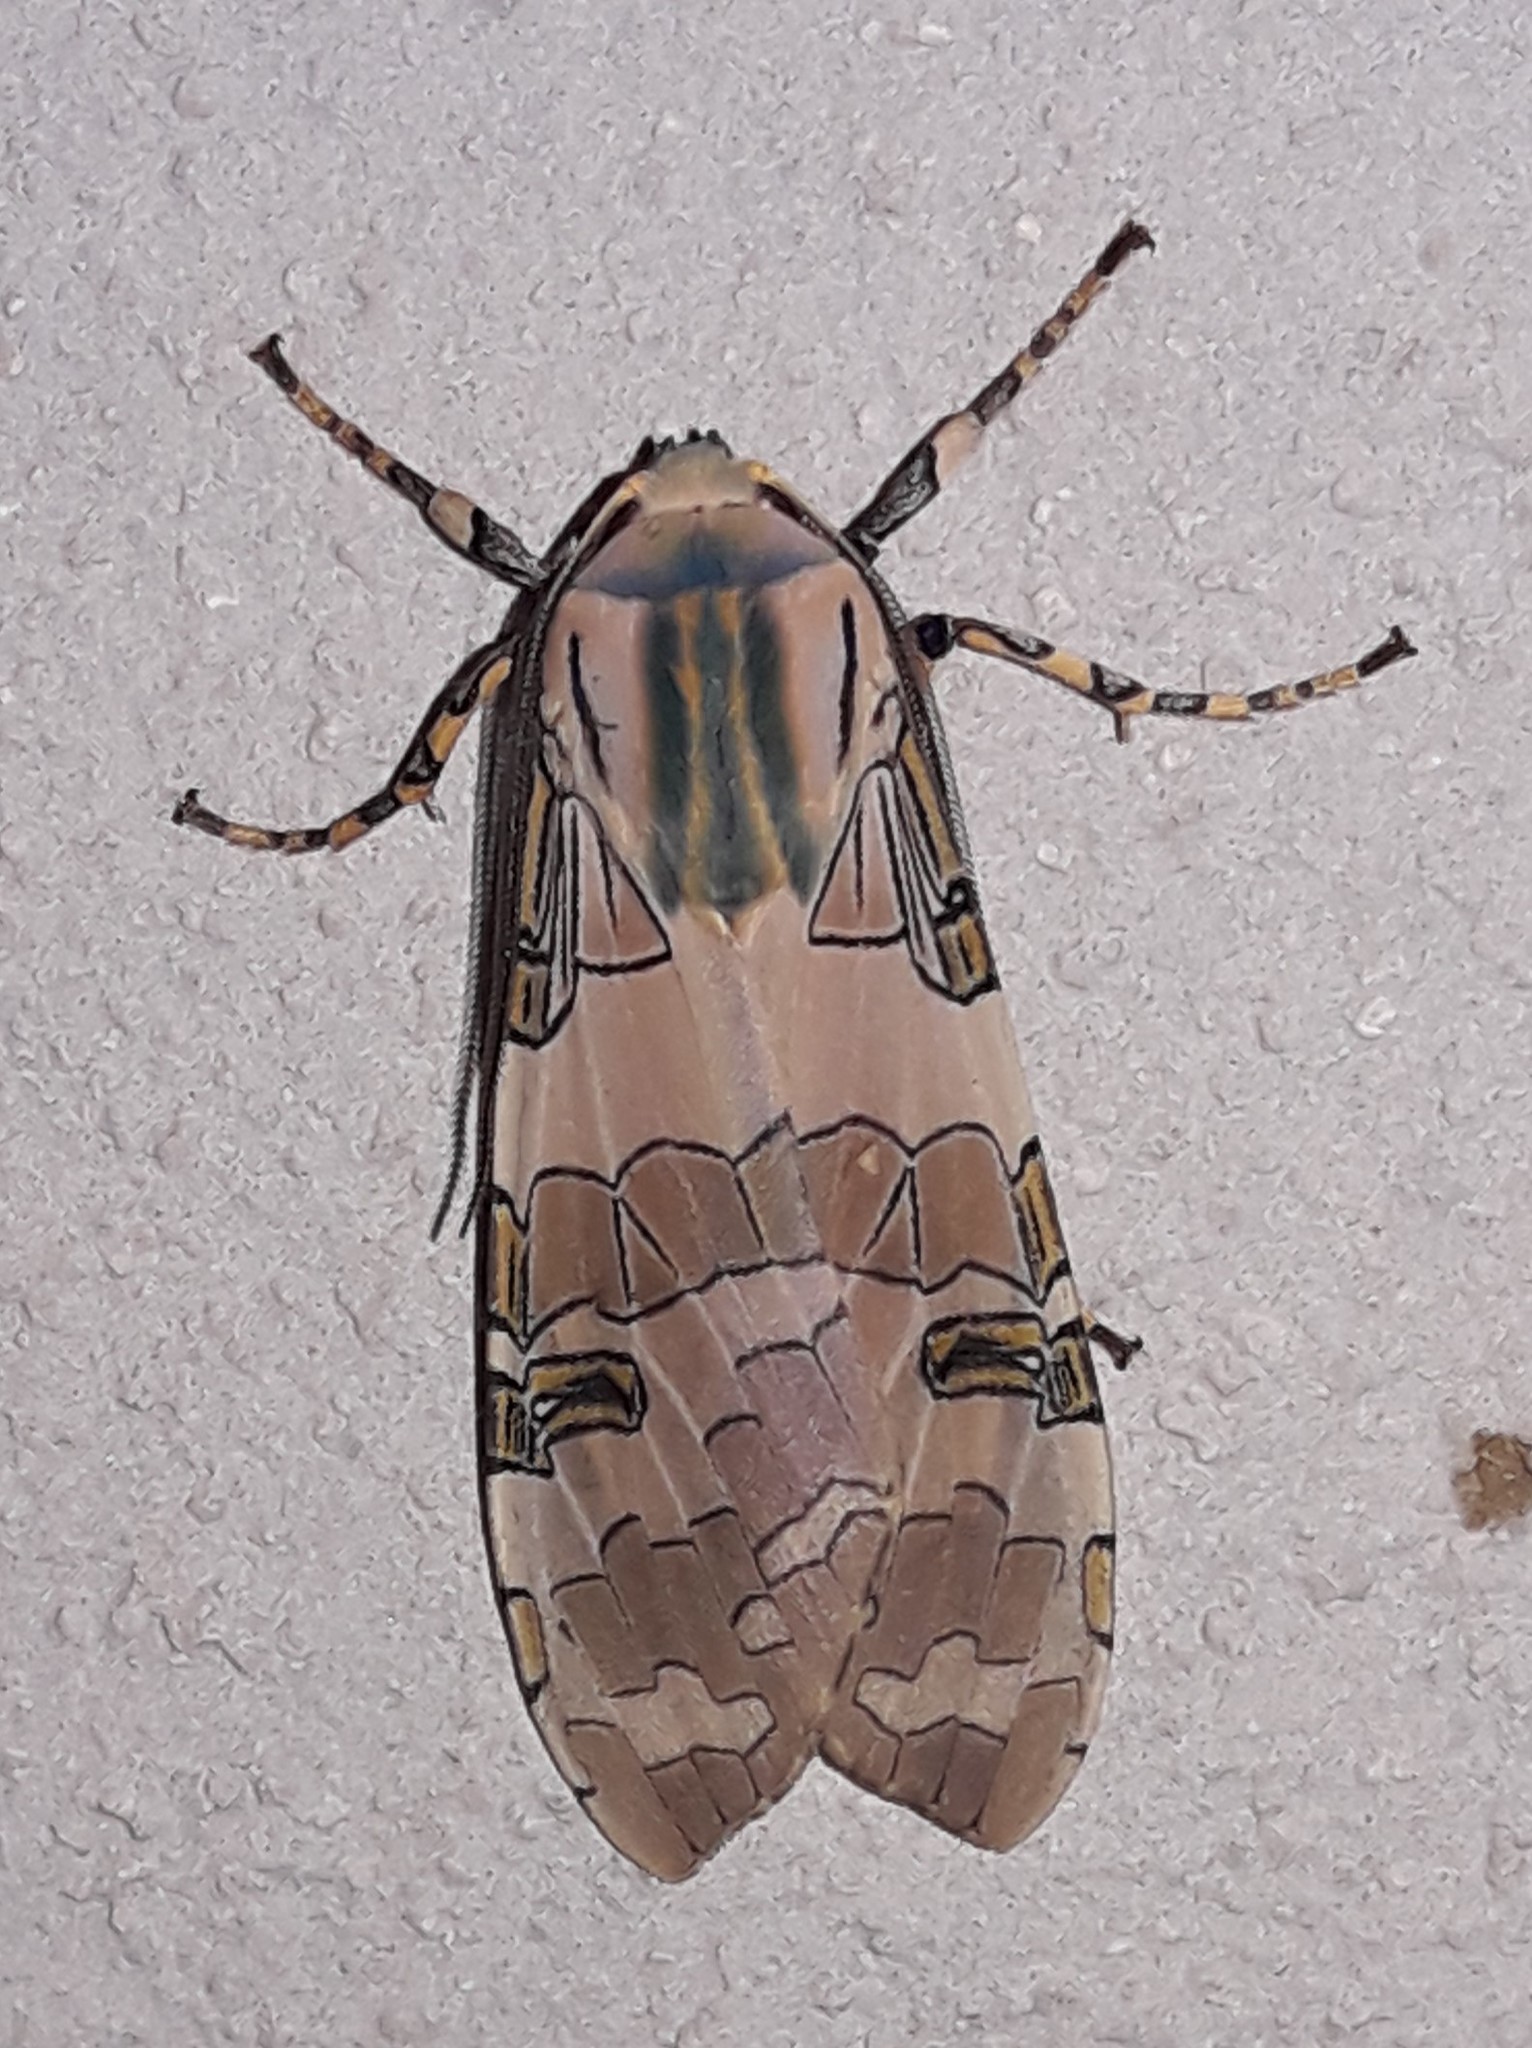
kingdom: Animalia
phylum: Arthropoda
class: Insecta
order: Lepidoptera
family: Erebidae
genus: Halysidota
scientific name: Halysidota orientalis
